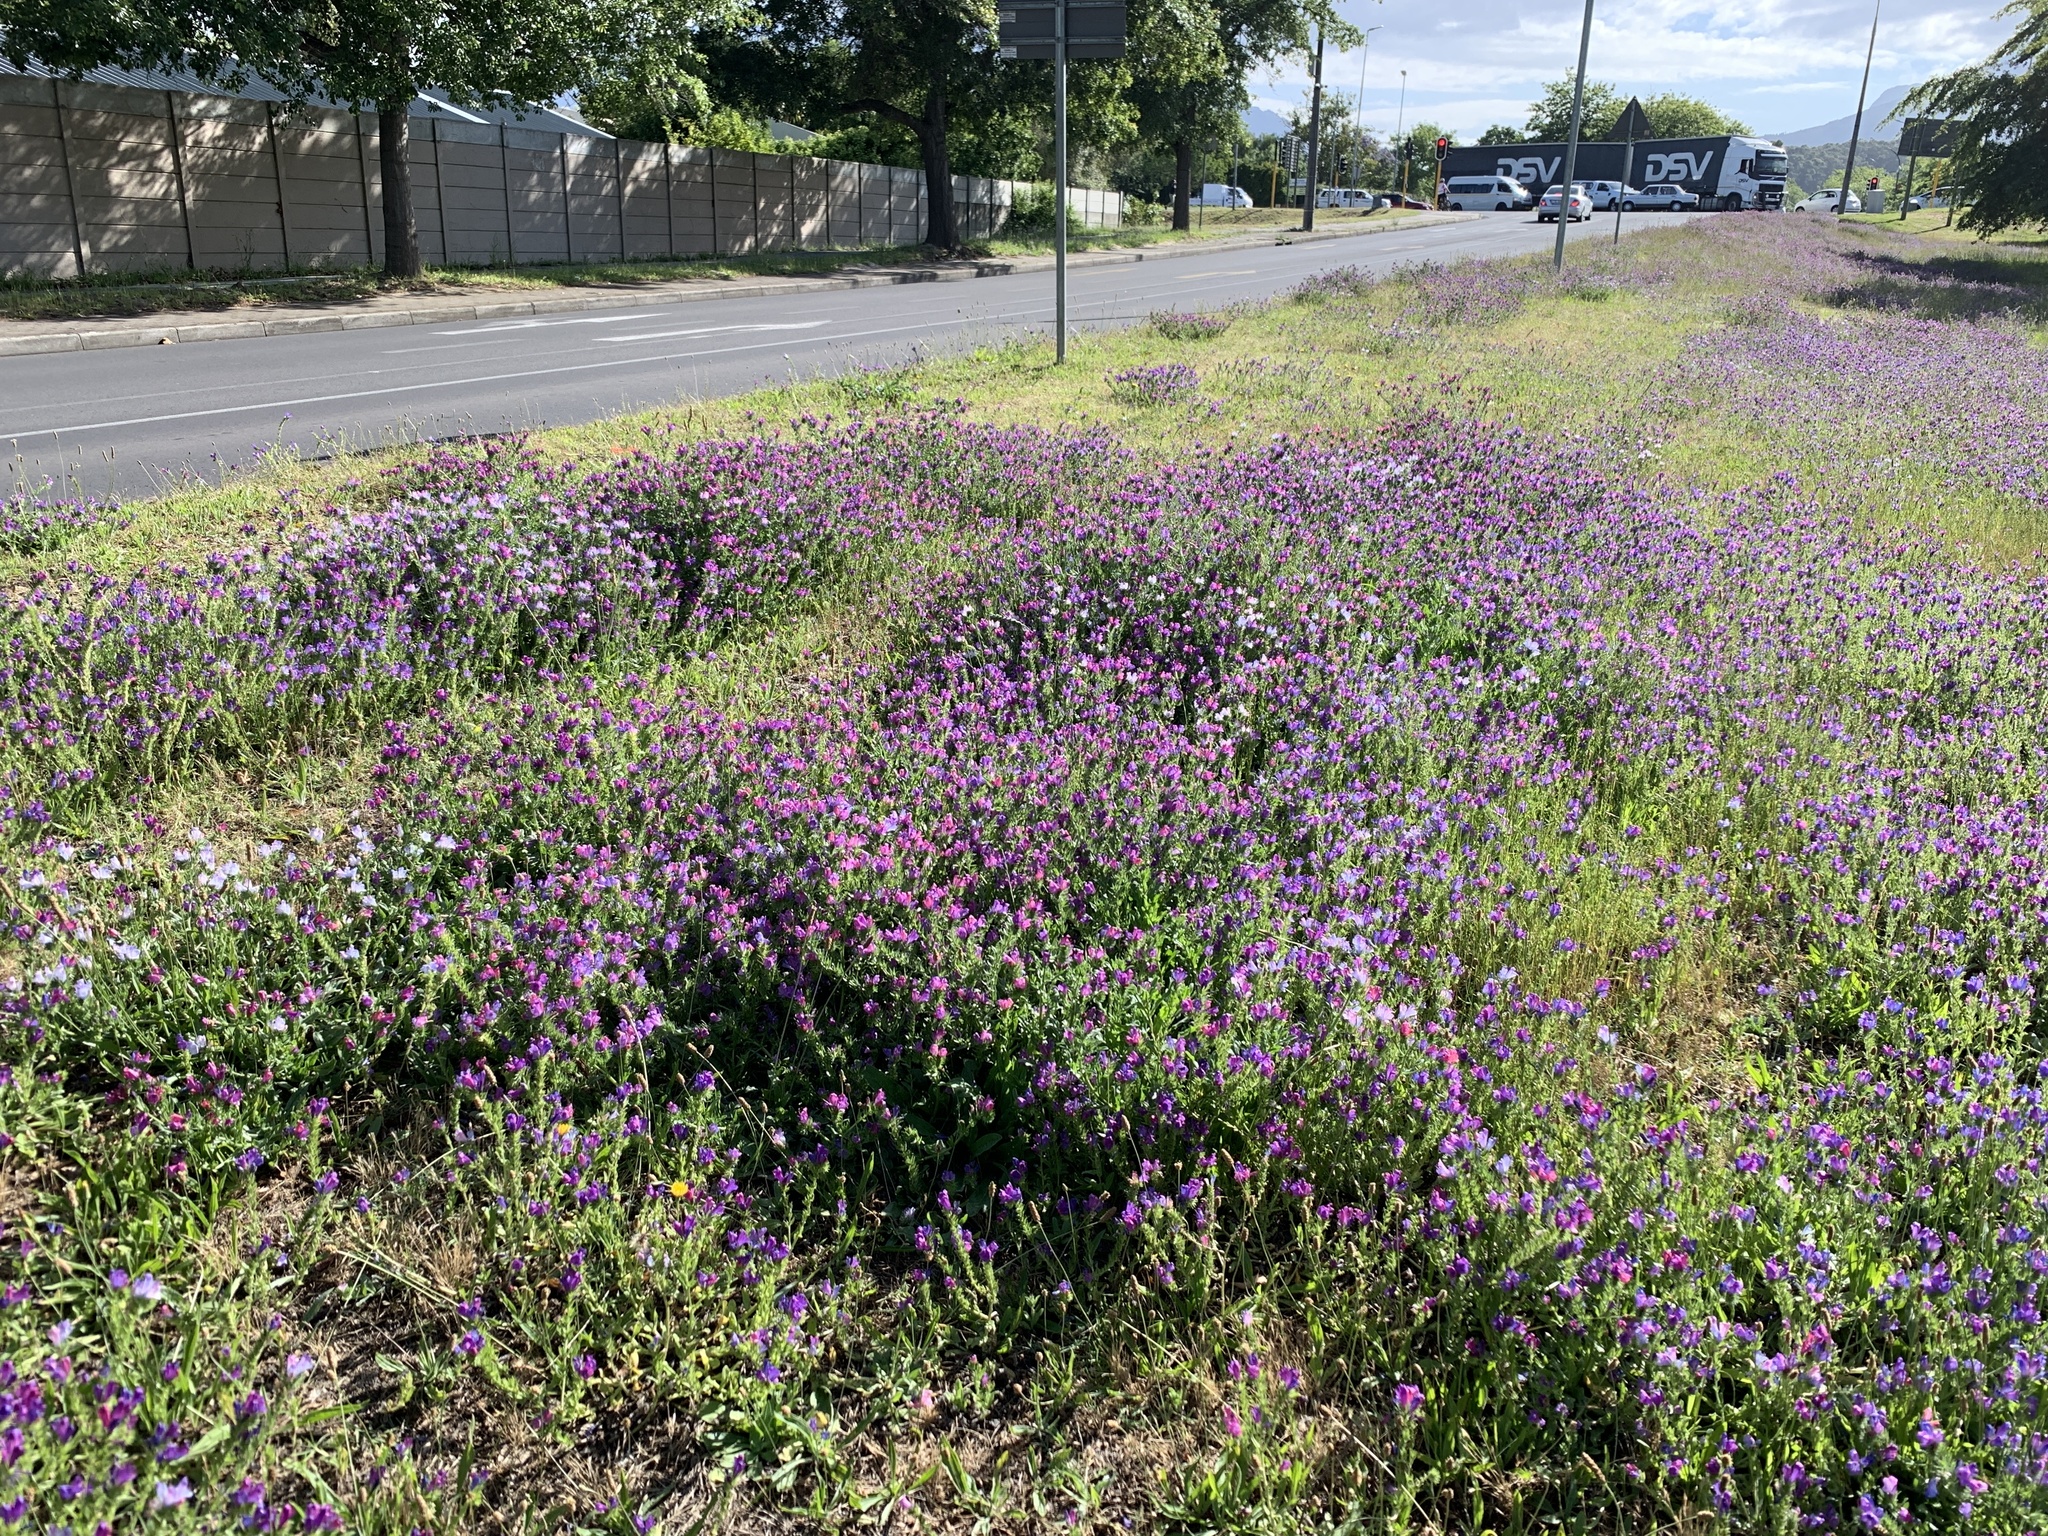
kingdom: Plantae
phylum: Tracheophyta
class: Magnoliopsida
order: Boraginales
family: Boraginaceae
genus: Echium
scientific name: Echium plantagineum
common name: Purple viper's-bugloss
